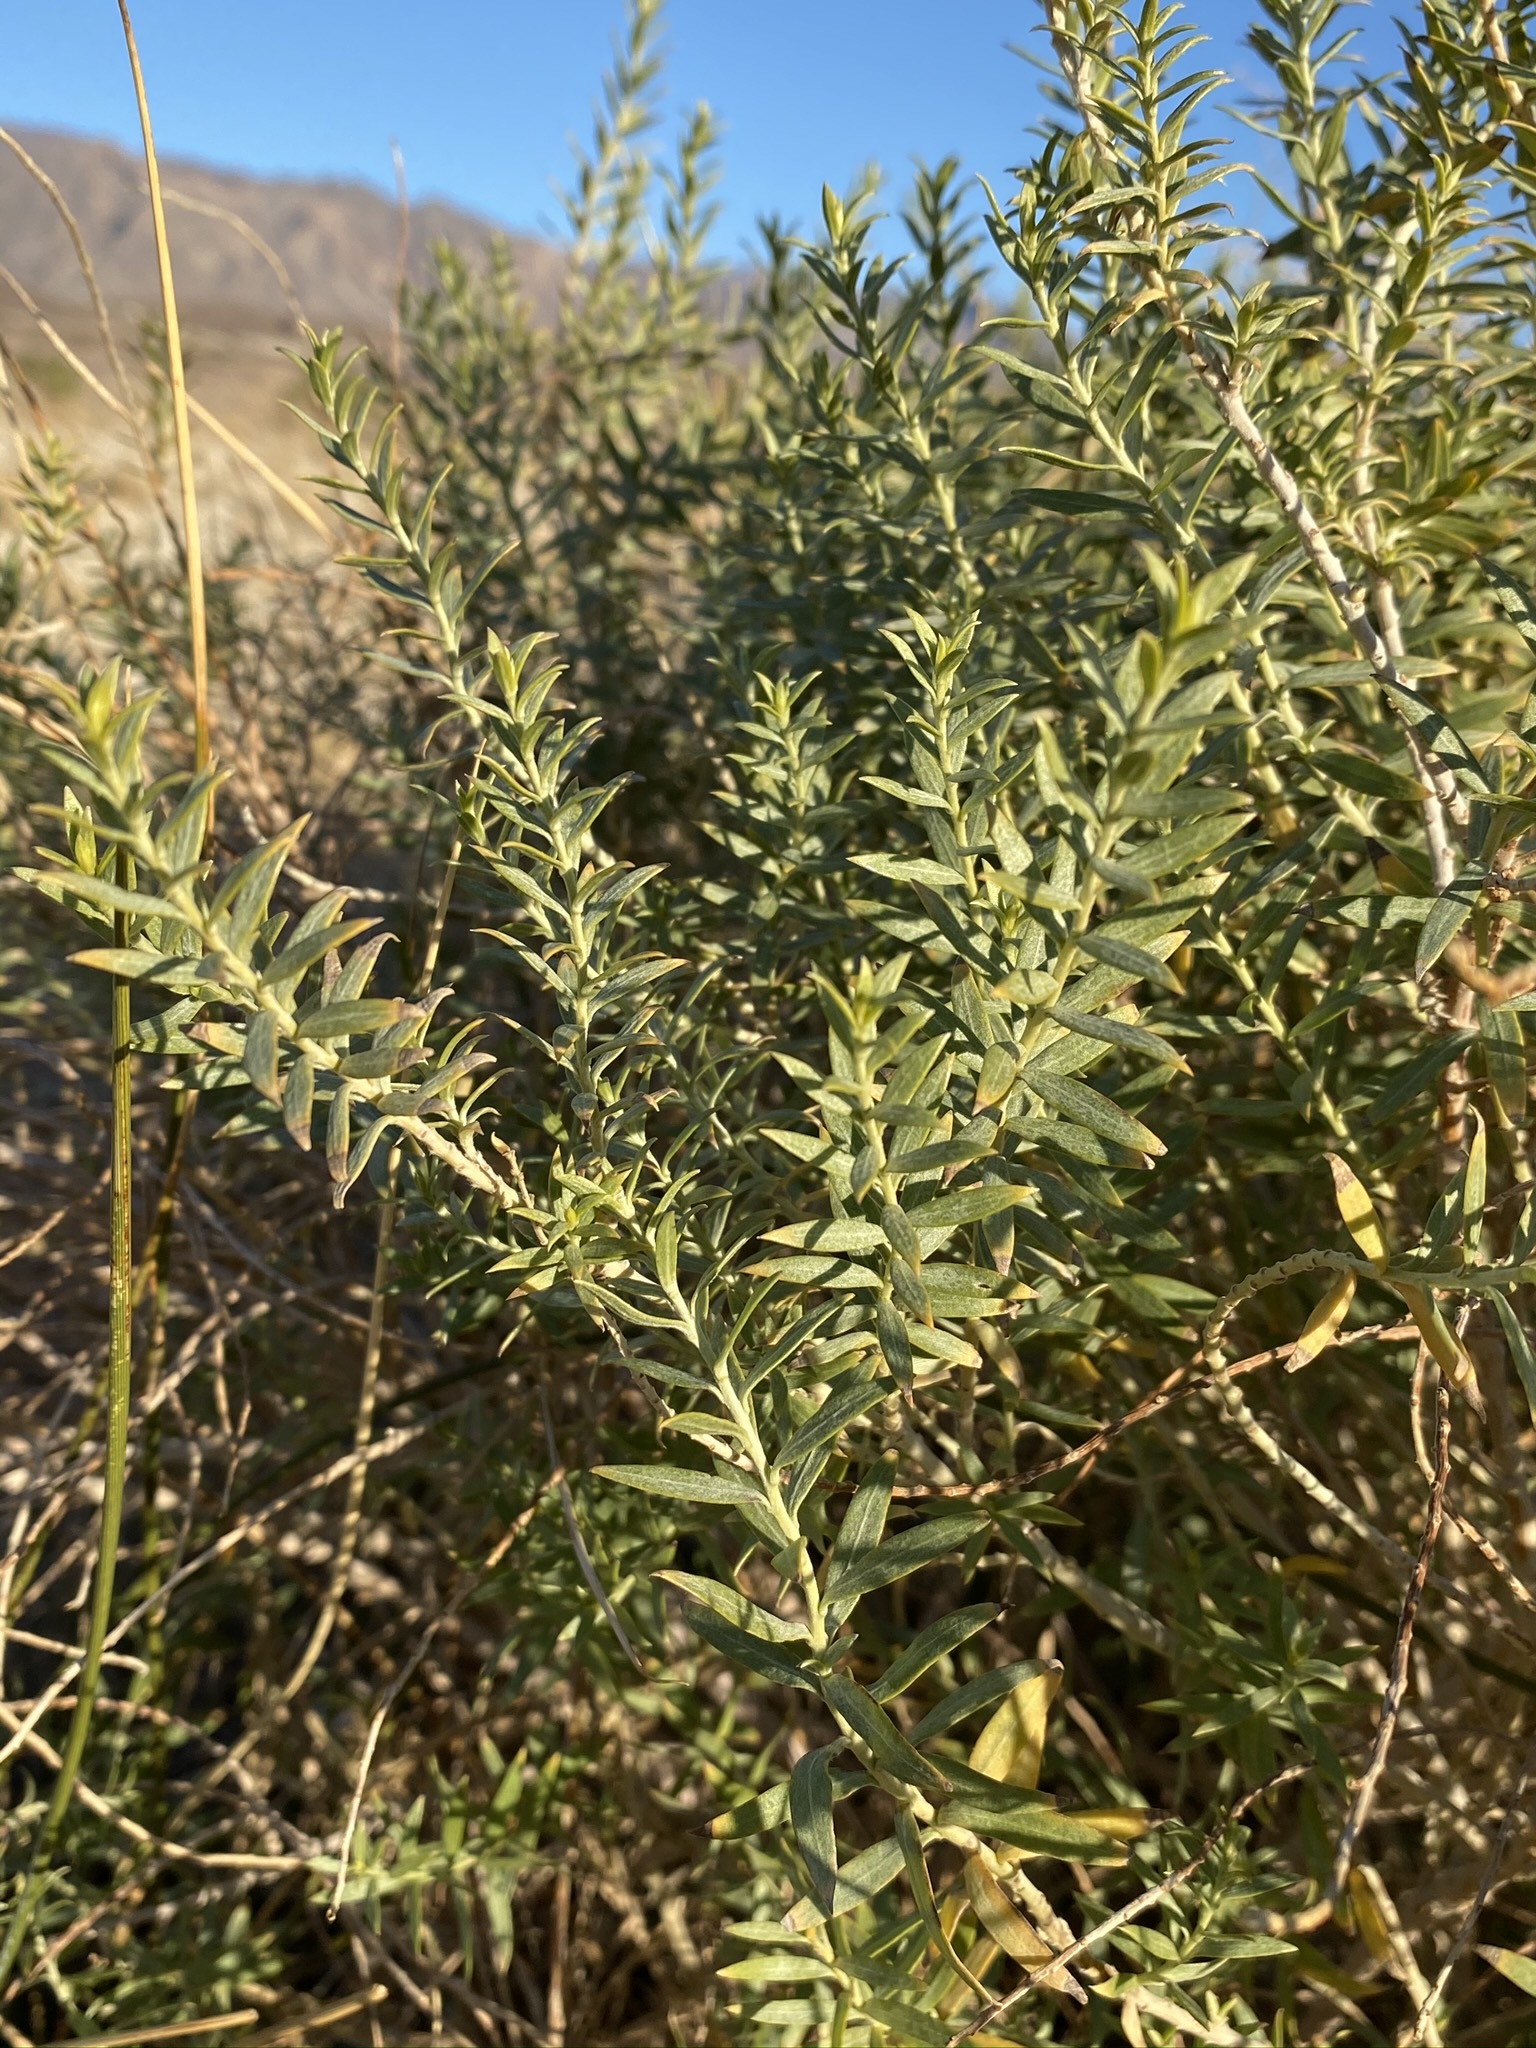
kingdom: Plantae
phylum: Tracheophyta
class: Magnoliopsida
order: Asterales
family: Asteraceae
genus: Pluchea
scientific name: Pluchea sericea
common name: Arrow-weed
